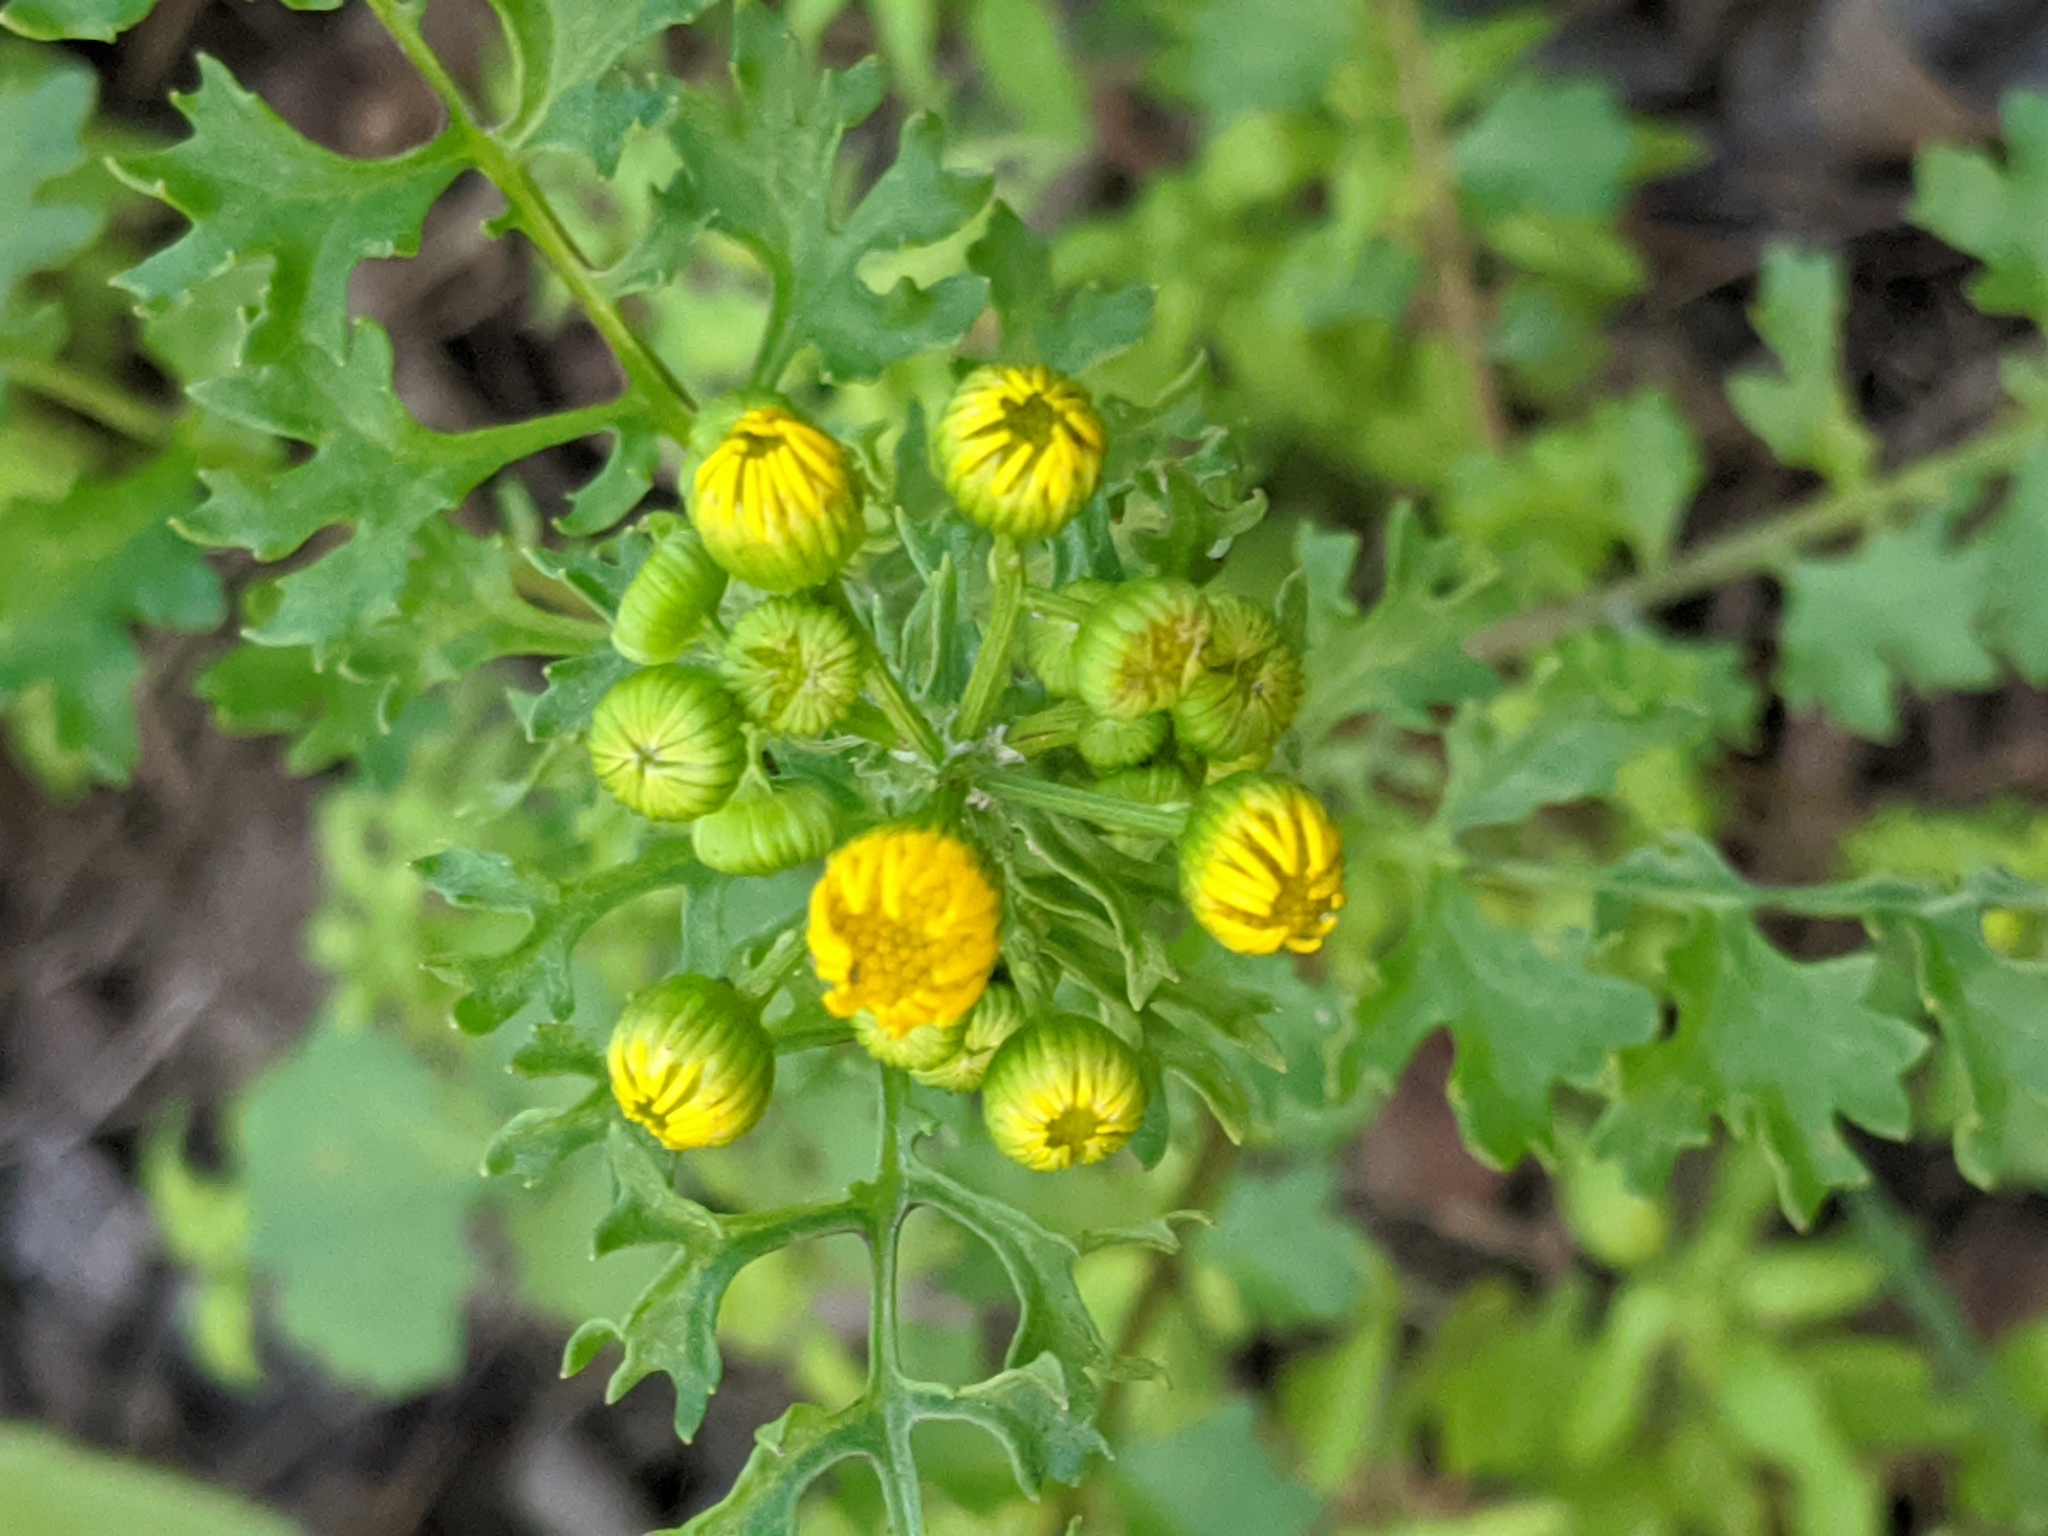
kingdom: Plantae
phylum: Tracheophyta
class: Magnoliopsida
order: Asterales
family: Asteraceae
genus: Packera
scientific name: Packera tampicana
